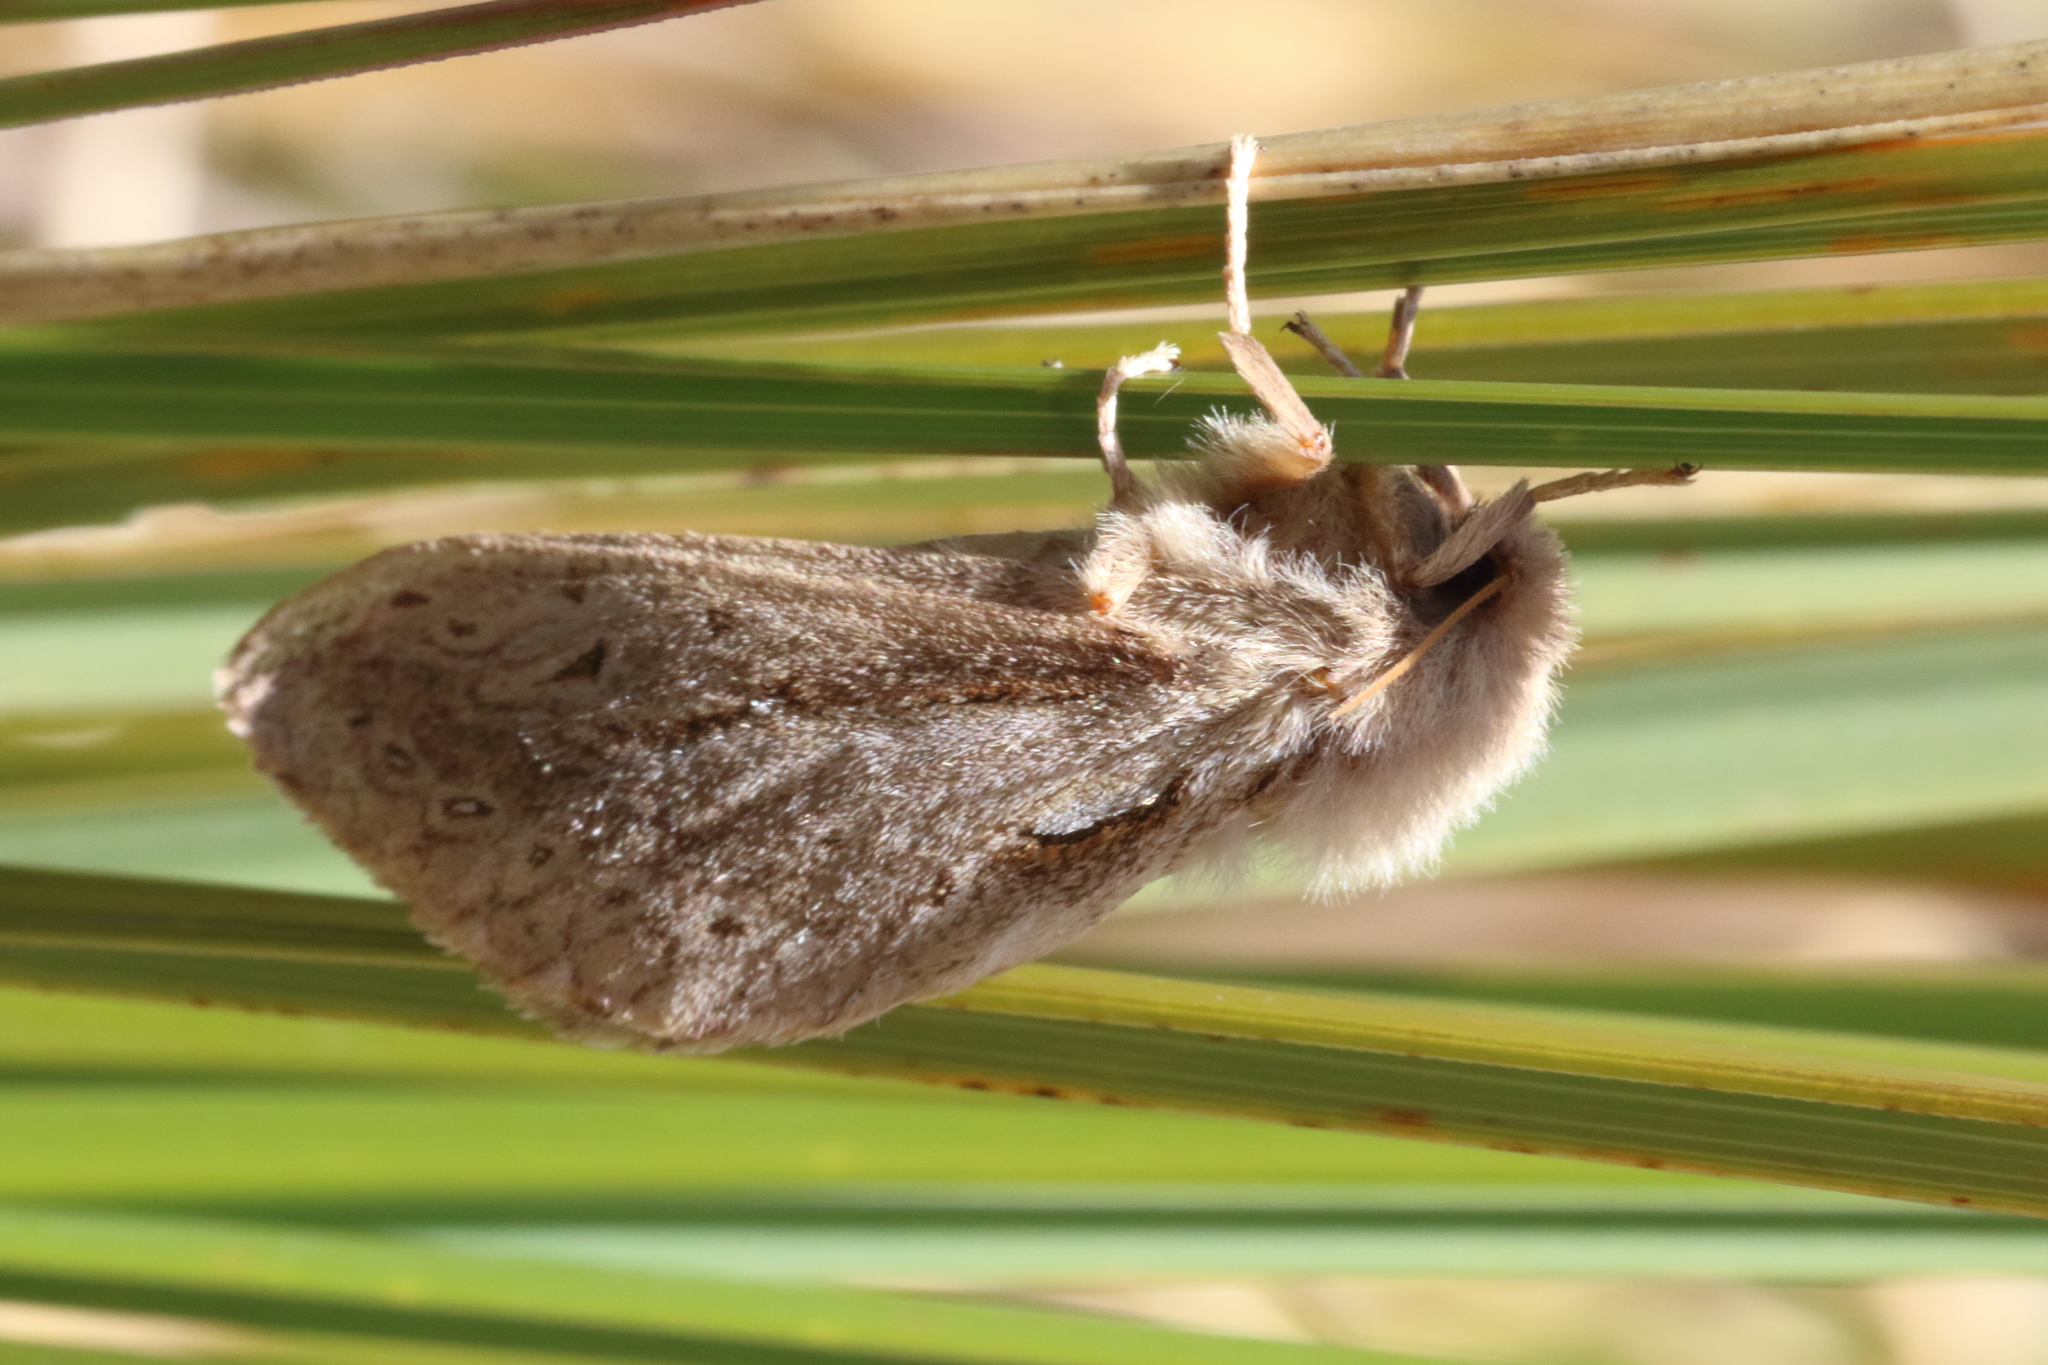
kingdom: Animalia
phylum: Arthropoda
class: Insecta
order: Lepidoptera
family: Hepialidae
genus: Dioxycanus
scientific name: Dioxycanus oreas
